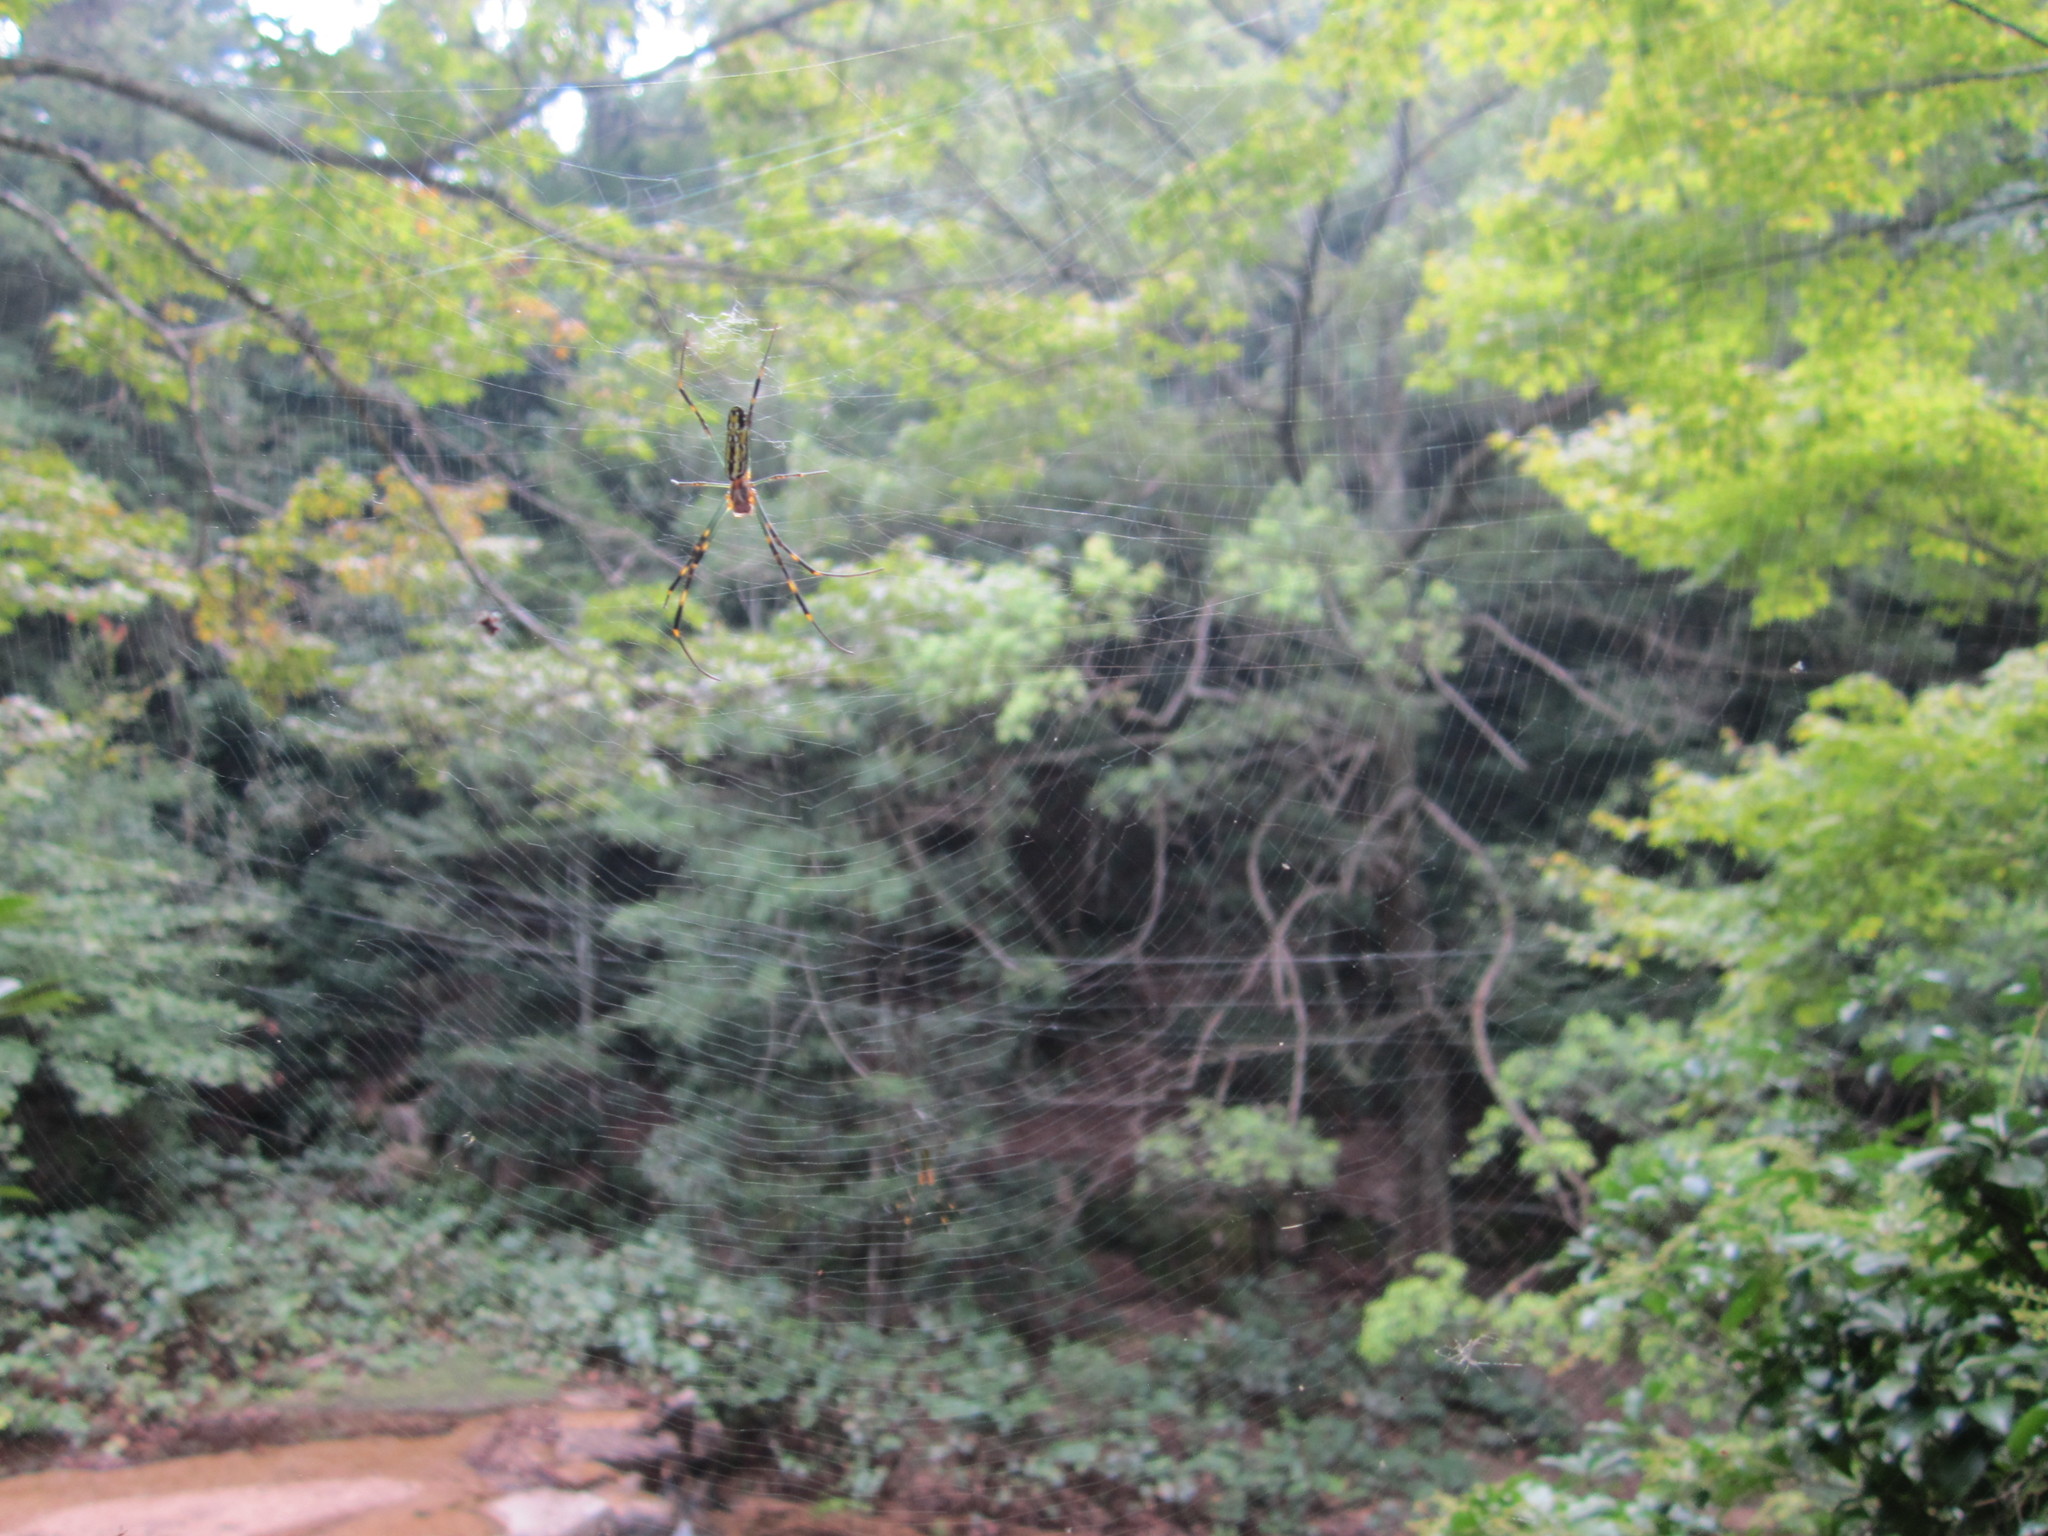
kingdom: Animalia
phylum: Arthropoda
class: Arachnida
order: Araneae
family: Araneidae
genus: Trichonephila
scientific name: Trichonephila clavata
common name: Jorō spider
